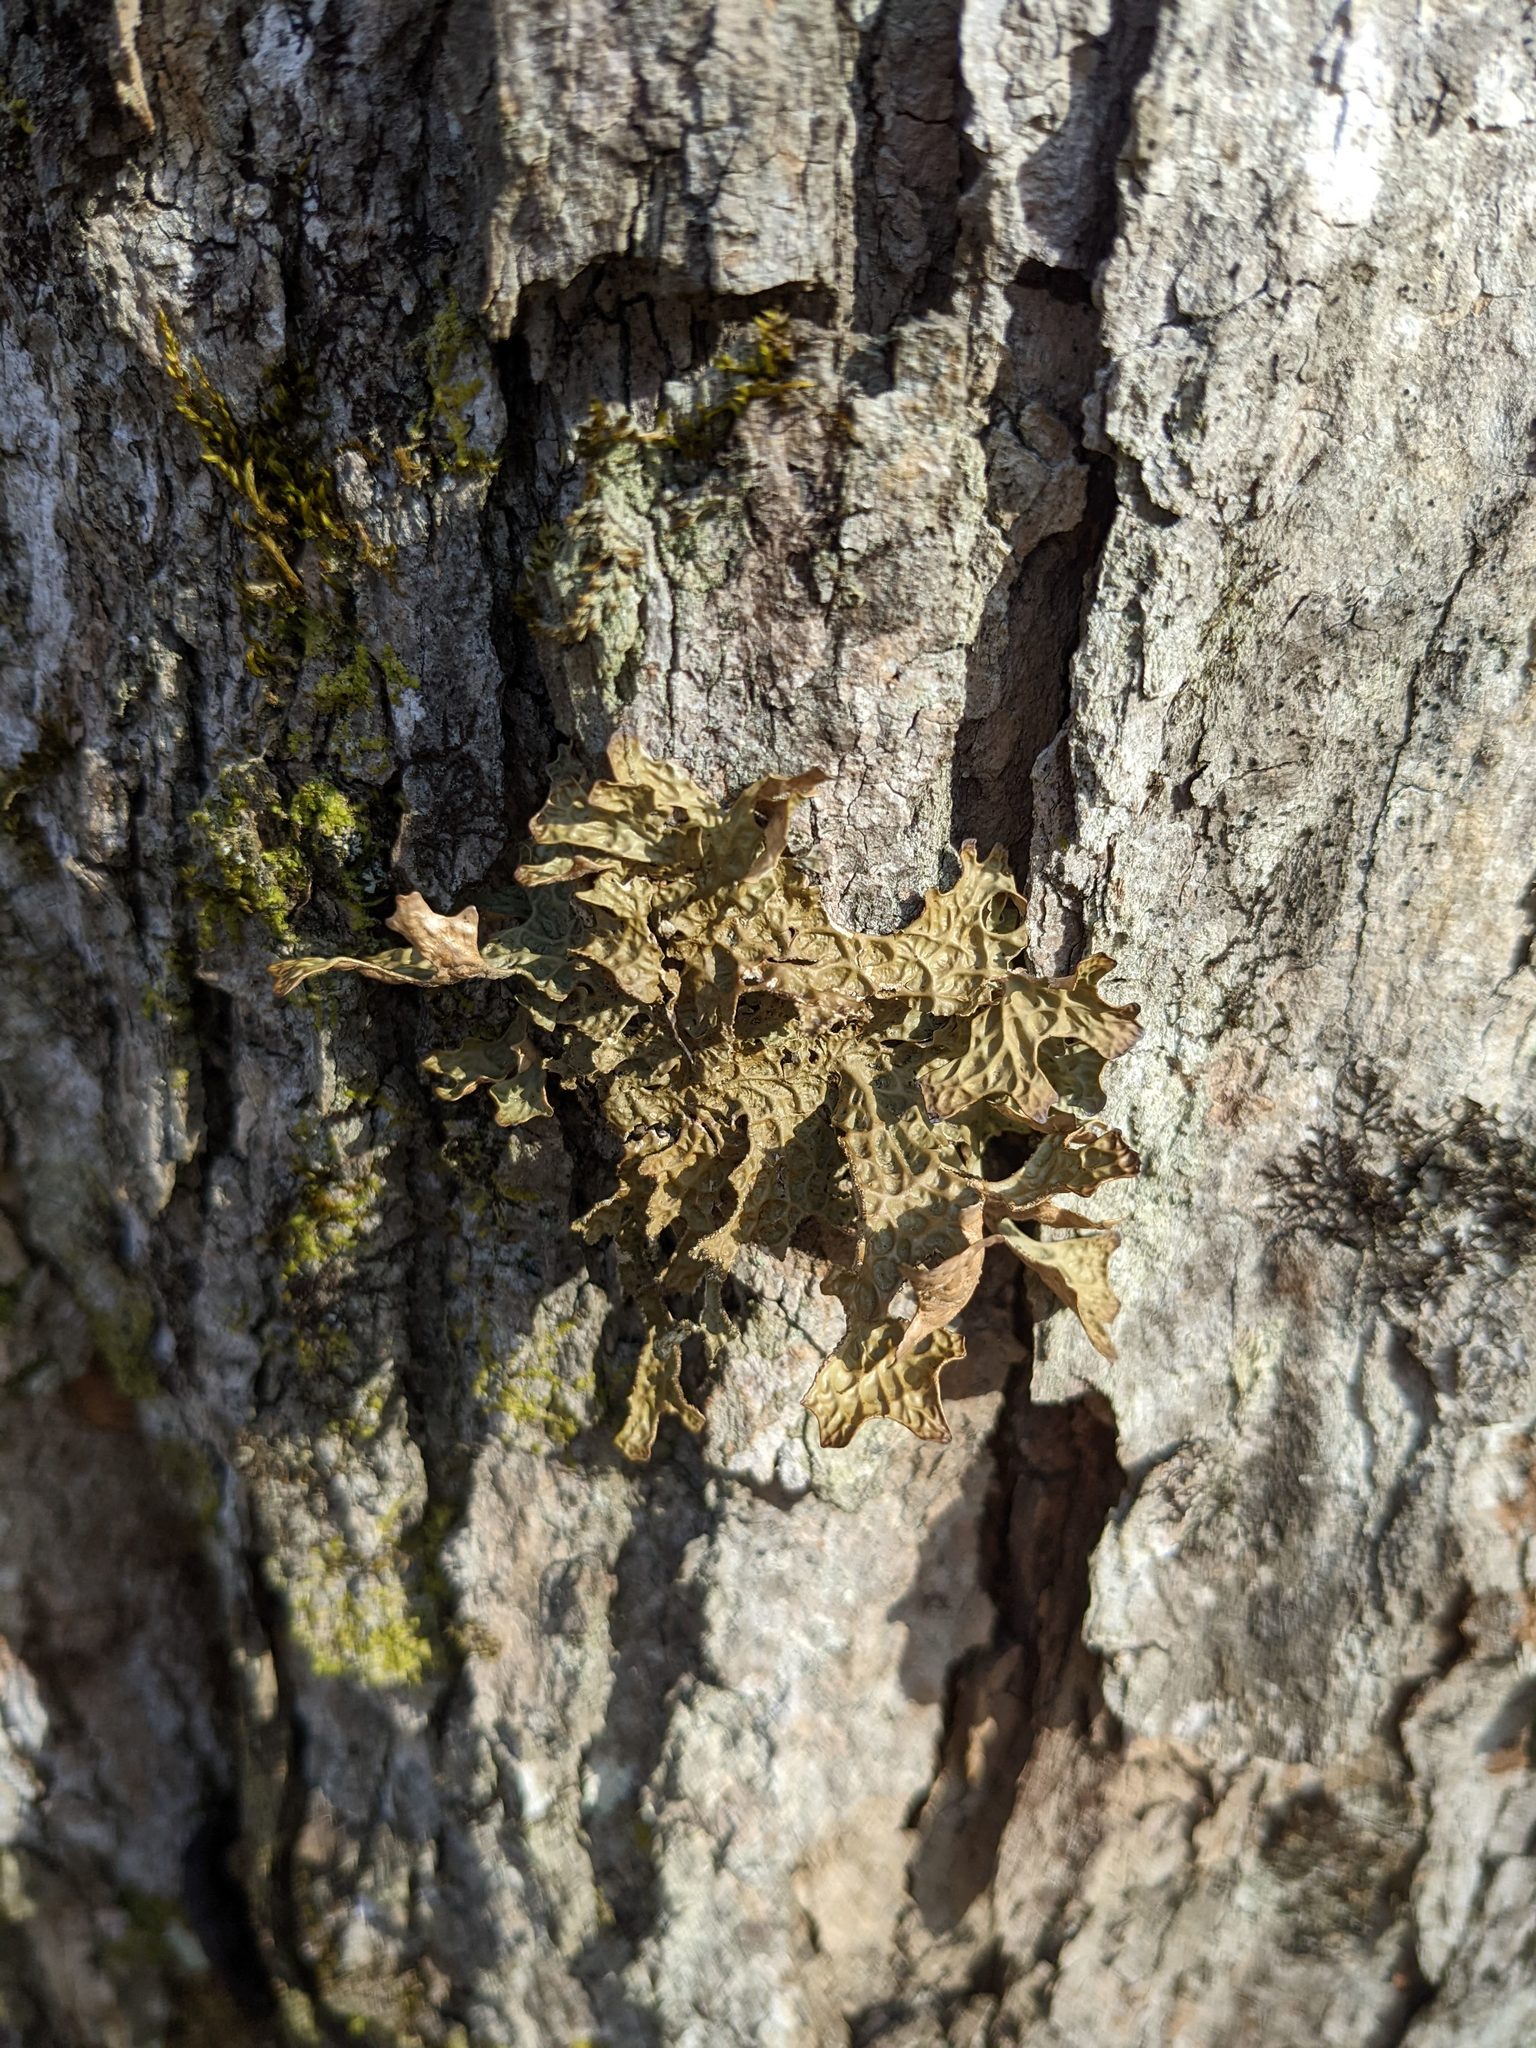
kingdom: Fungi
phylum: Ascomycota
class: Lecanoromycetes
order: Peltigerales
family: Lobariaceae
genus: Lobaria
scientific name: Lobaria pulmonaria
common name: Lungwort
